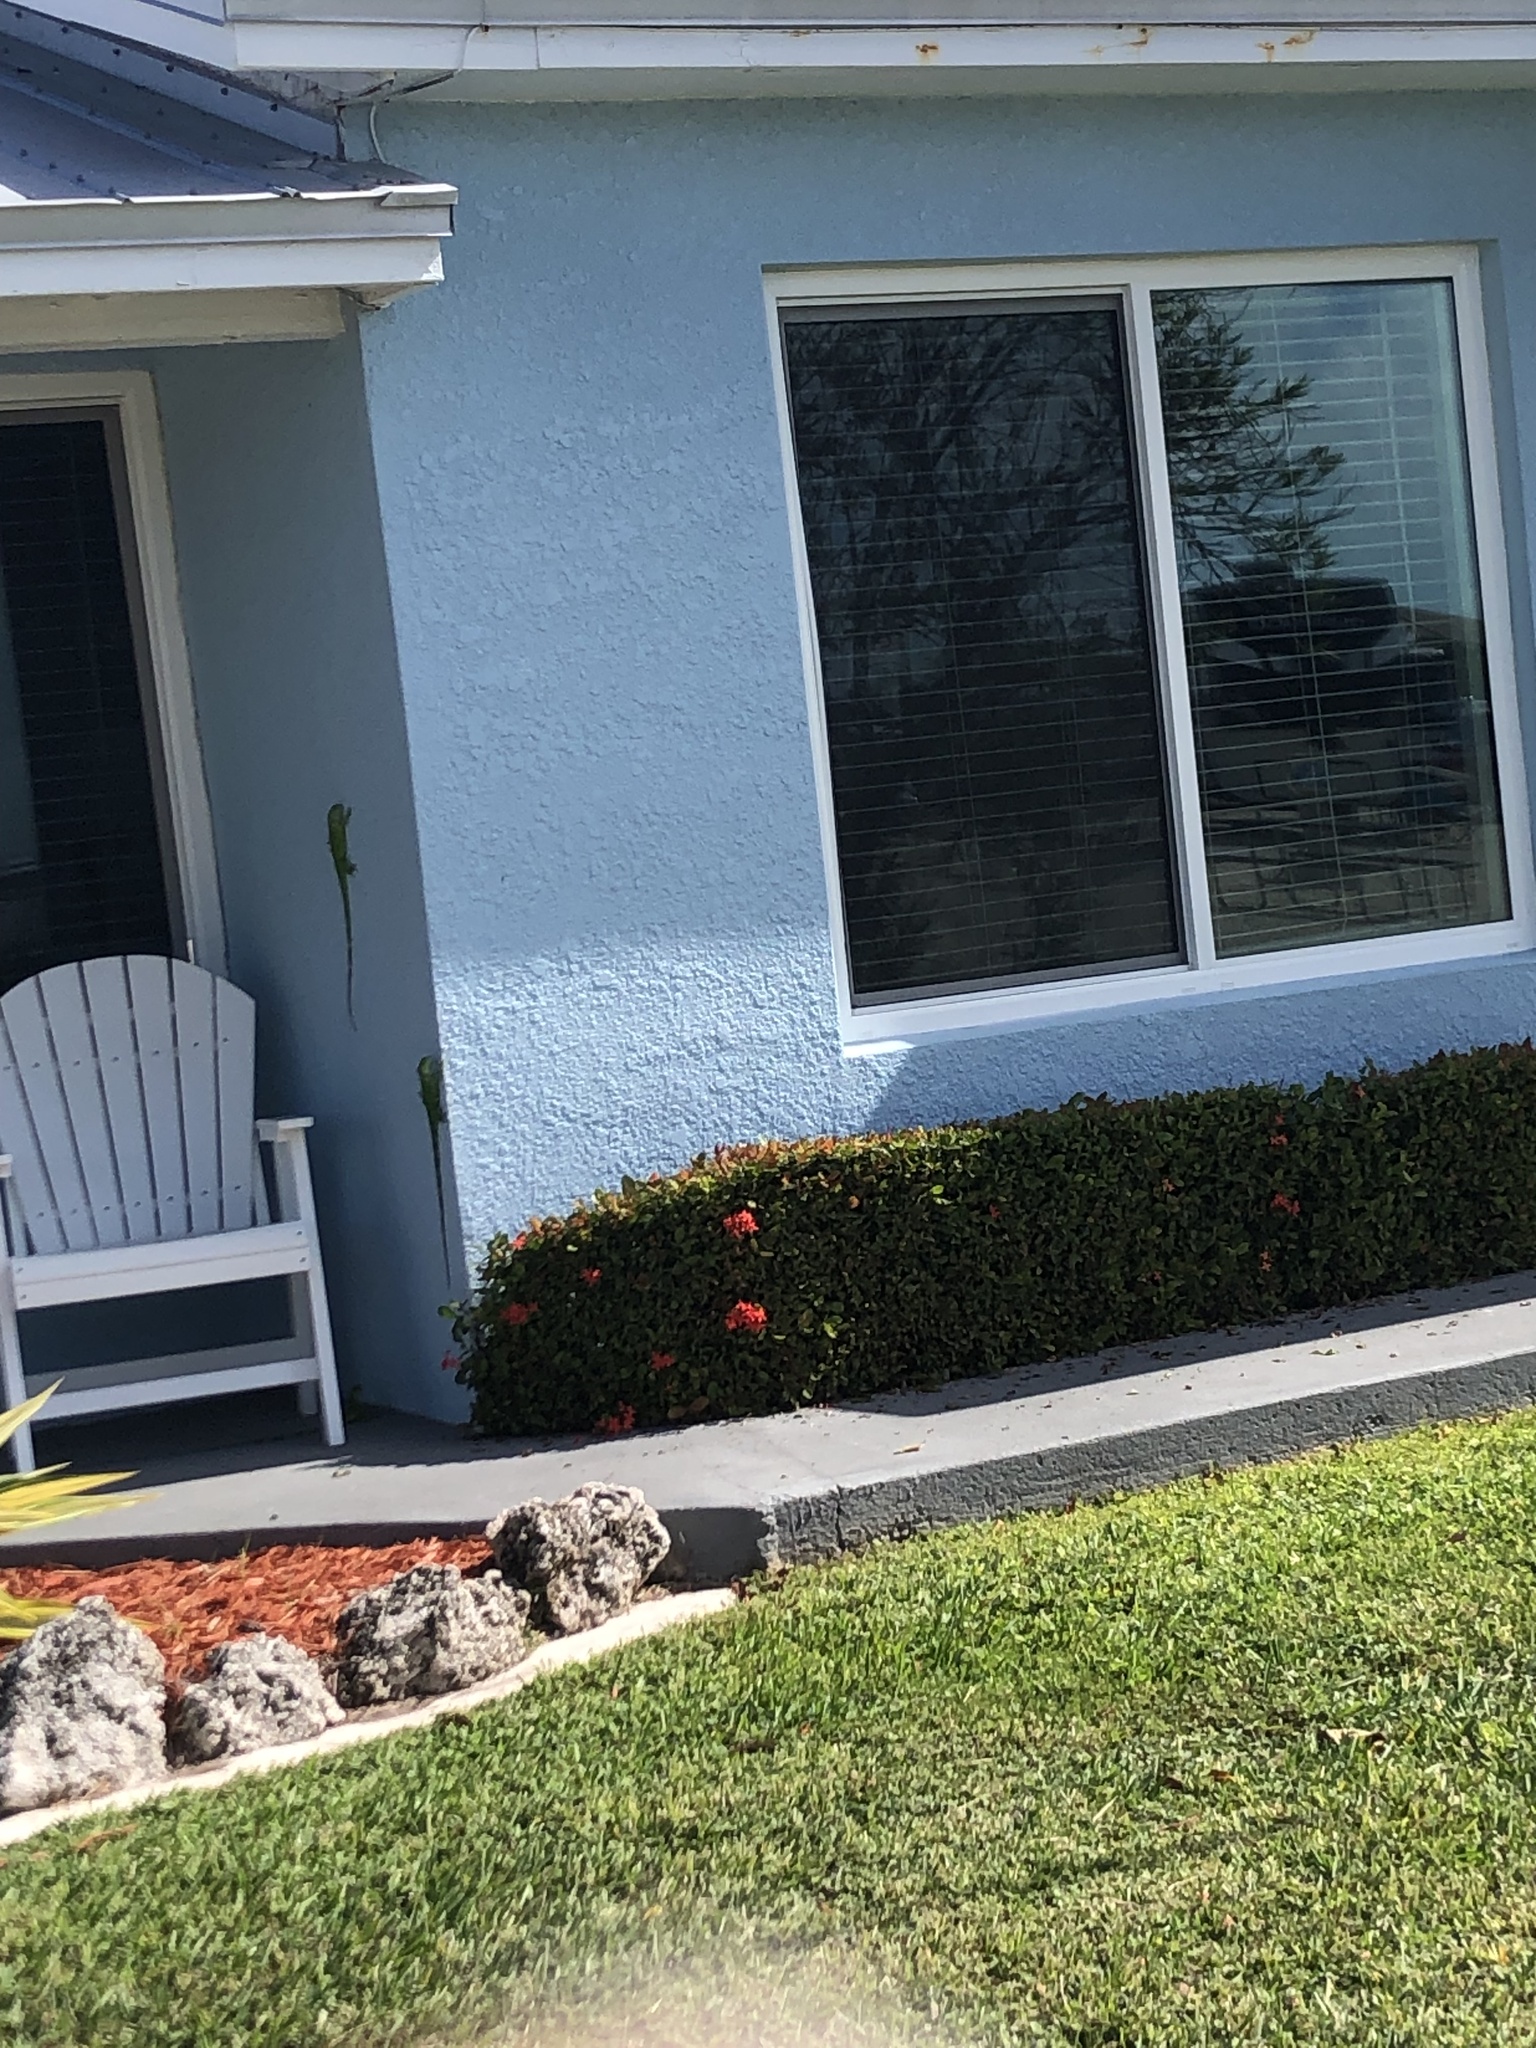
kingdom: Animalia
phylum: Chordata
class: Squamata
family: Iguanidae
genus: Iguana
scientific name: Iguana iguana
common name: Green iguana
